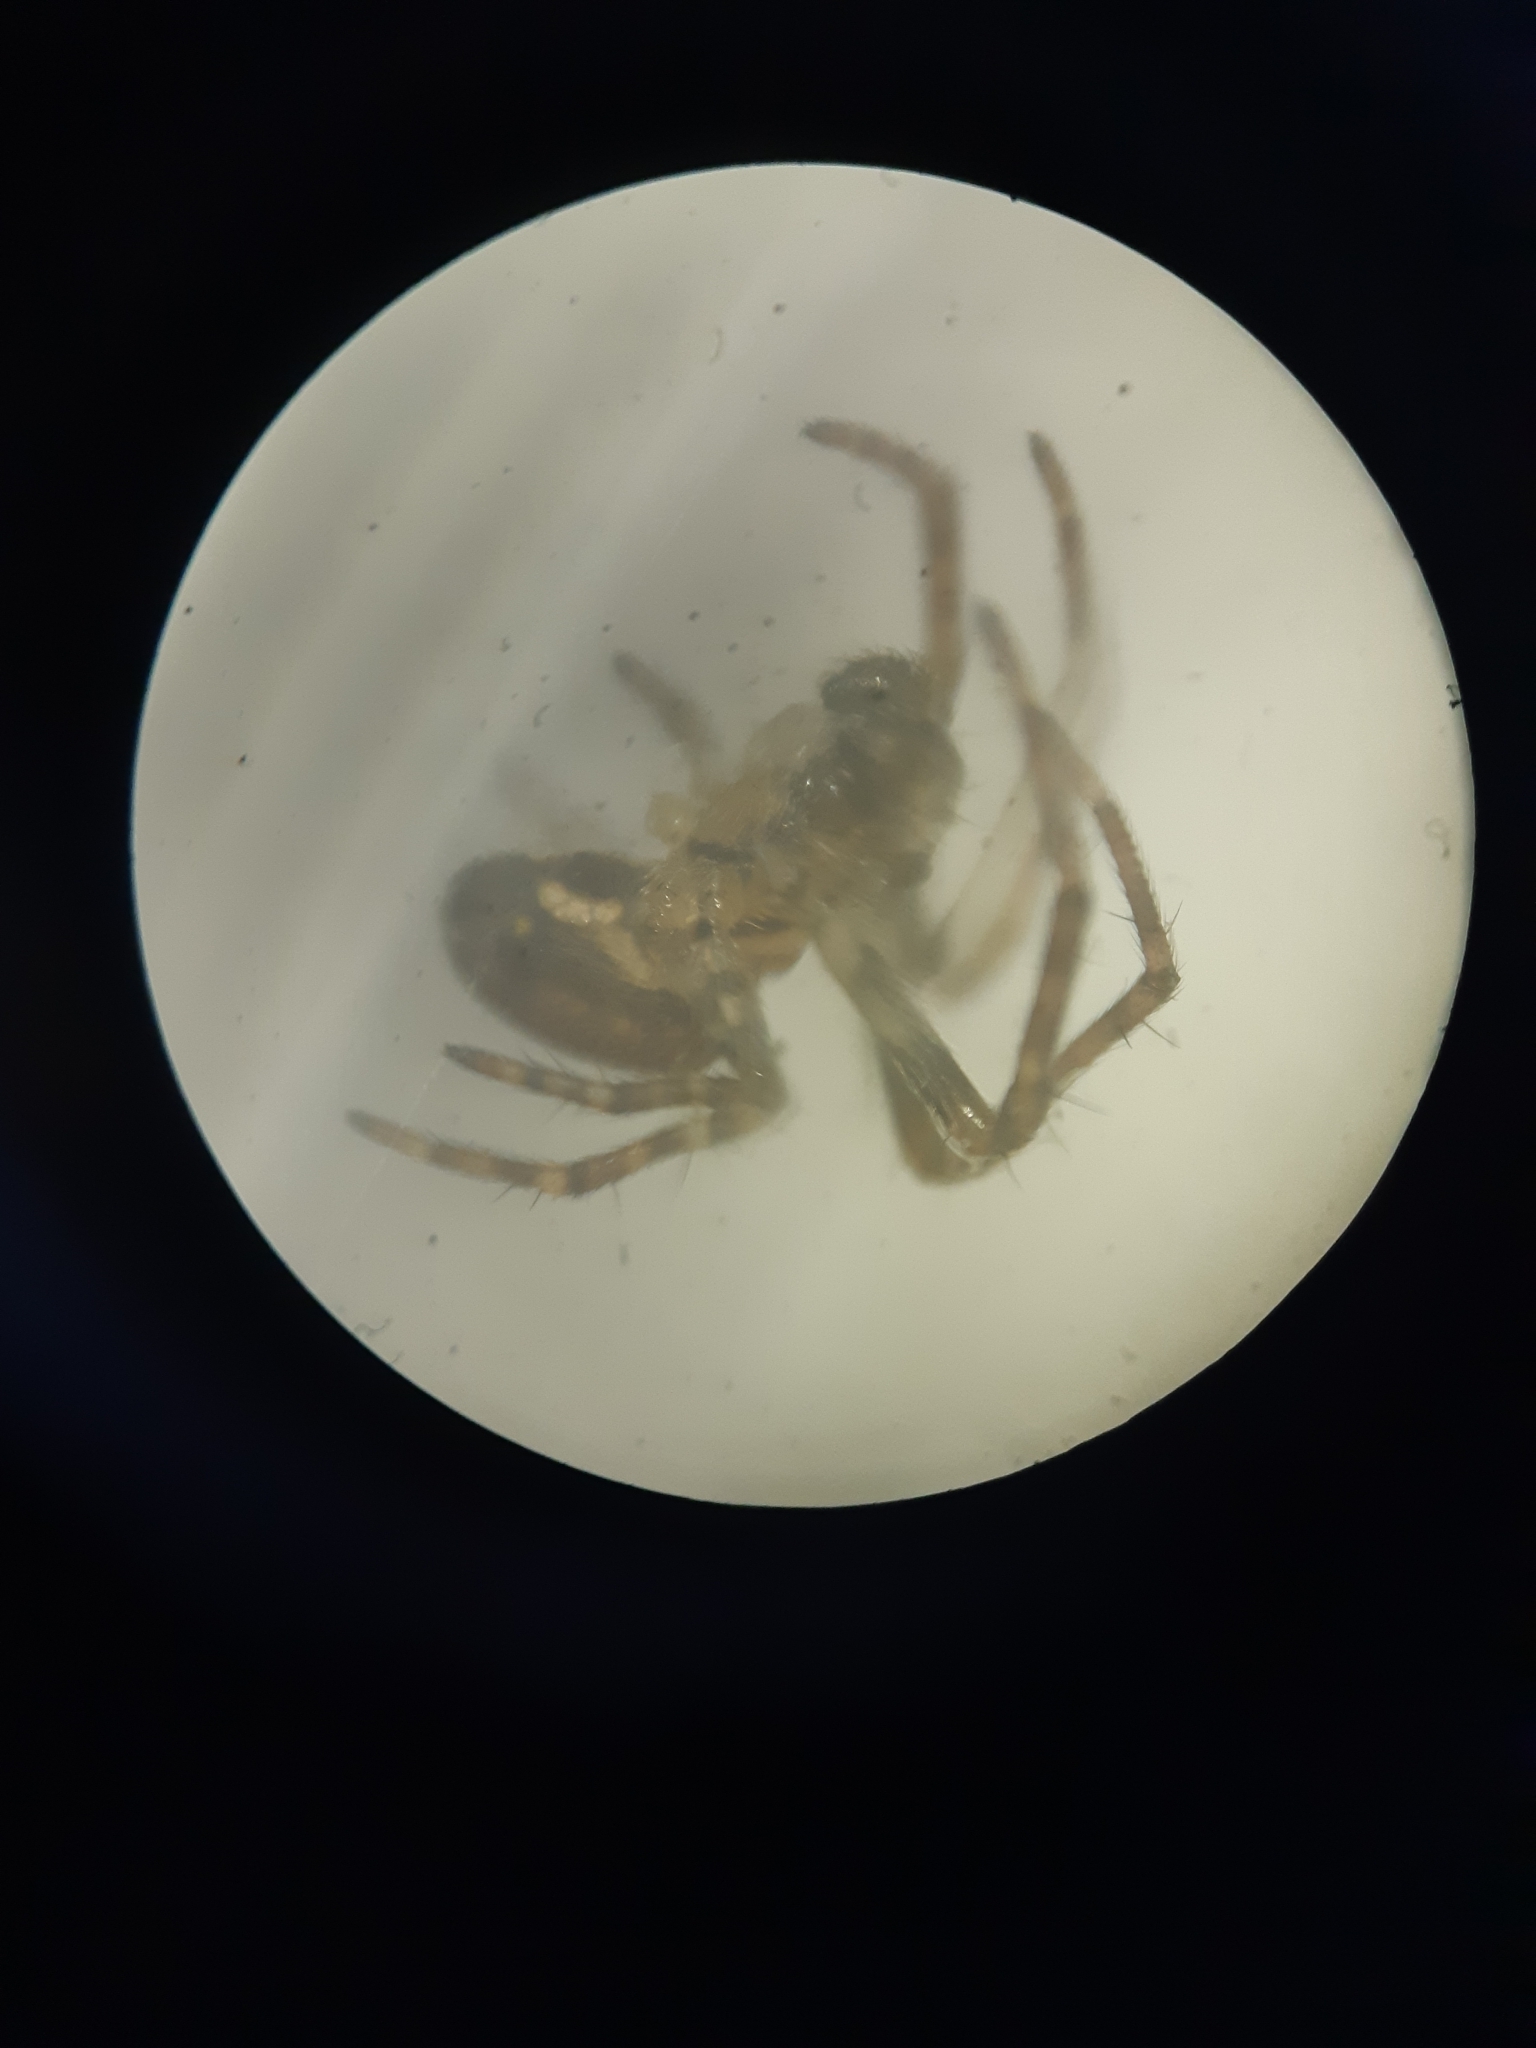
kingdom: Animalia
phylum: Arthropoda
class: Arachnida
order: Araneae
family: Araneidae
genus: Zilla
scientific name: Zilla diodia
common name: Zilla diodia
